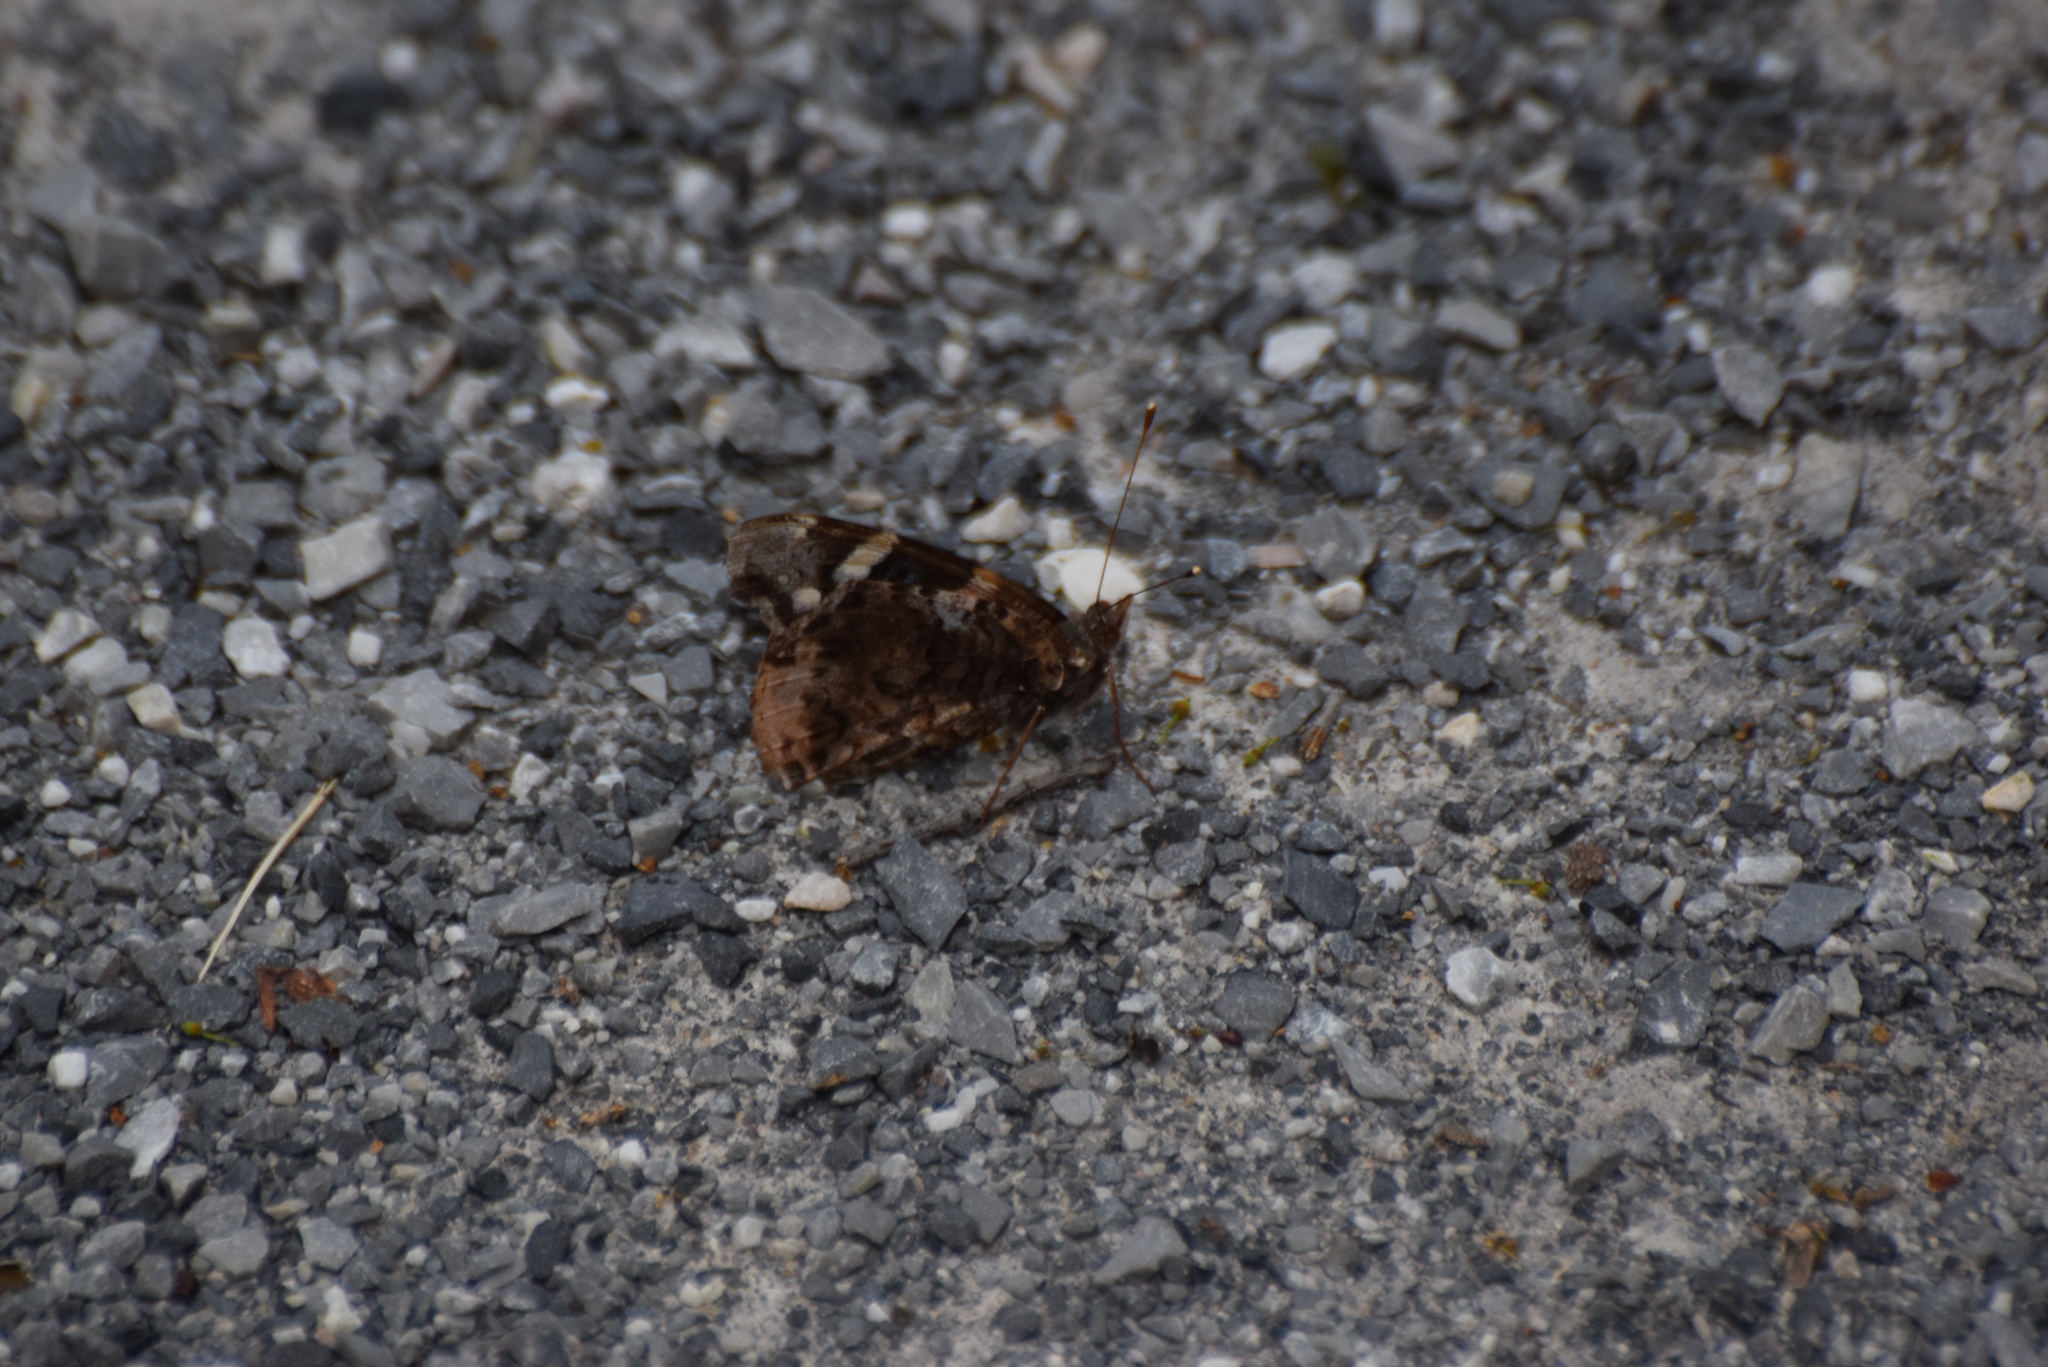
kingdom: Animalia
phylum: Arthropoda
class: Insecta
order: Lepidoptera
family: Nymphalidae
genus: Vanessa
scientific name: Vanessa atalanta
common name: Red admiral
